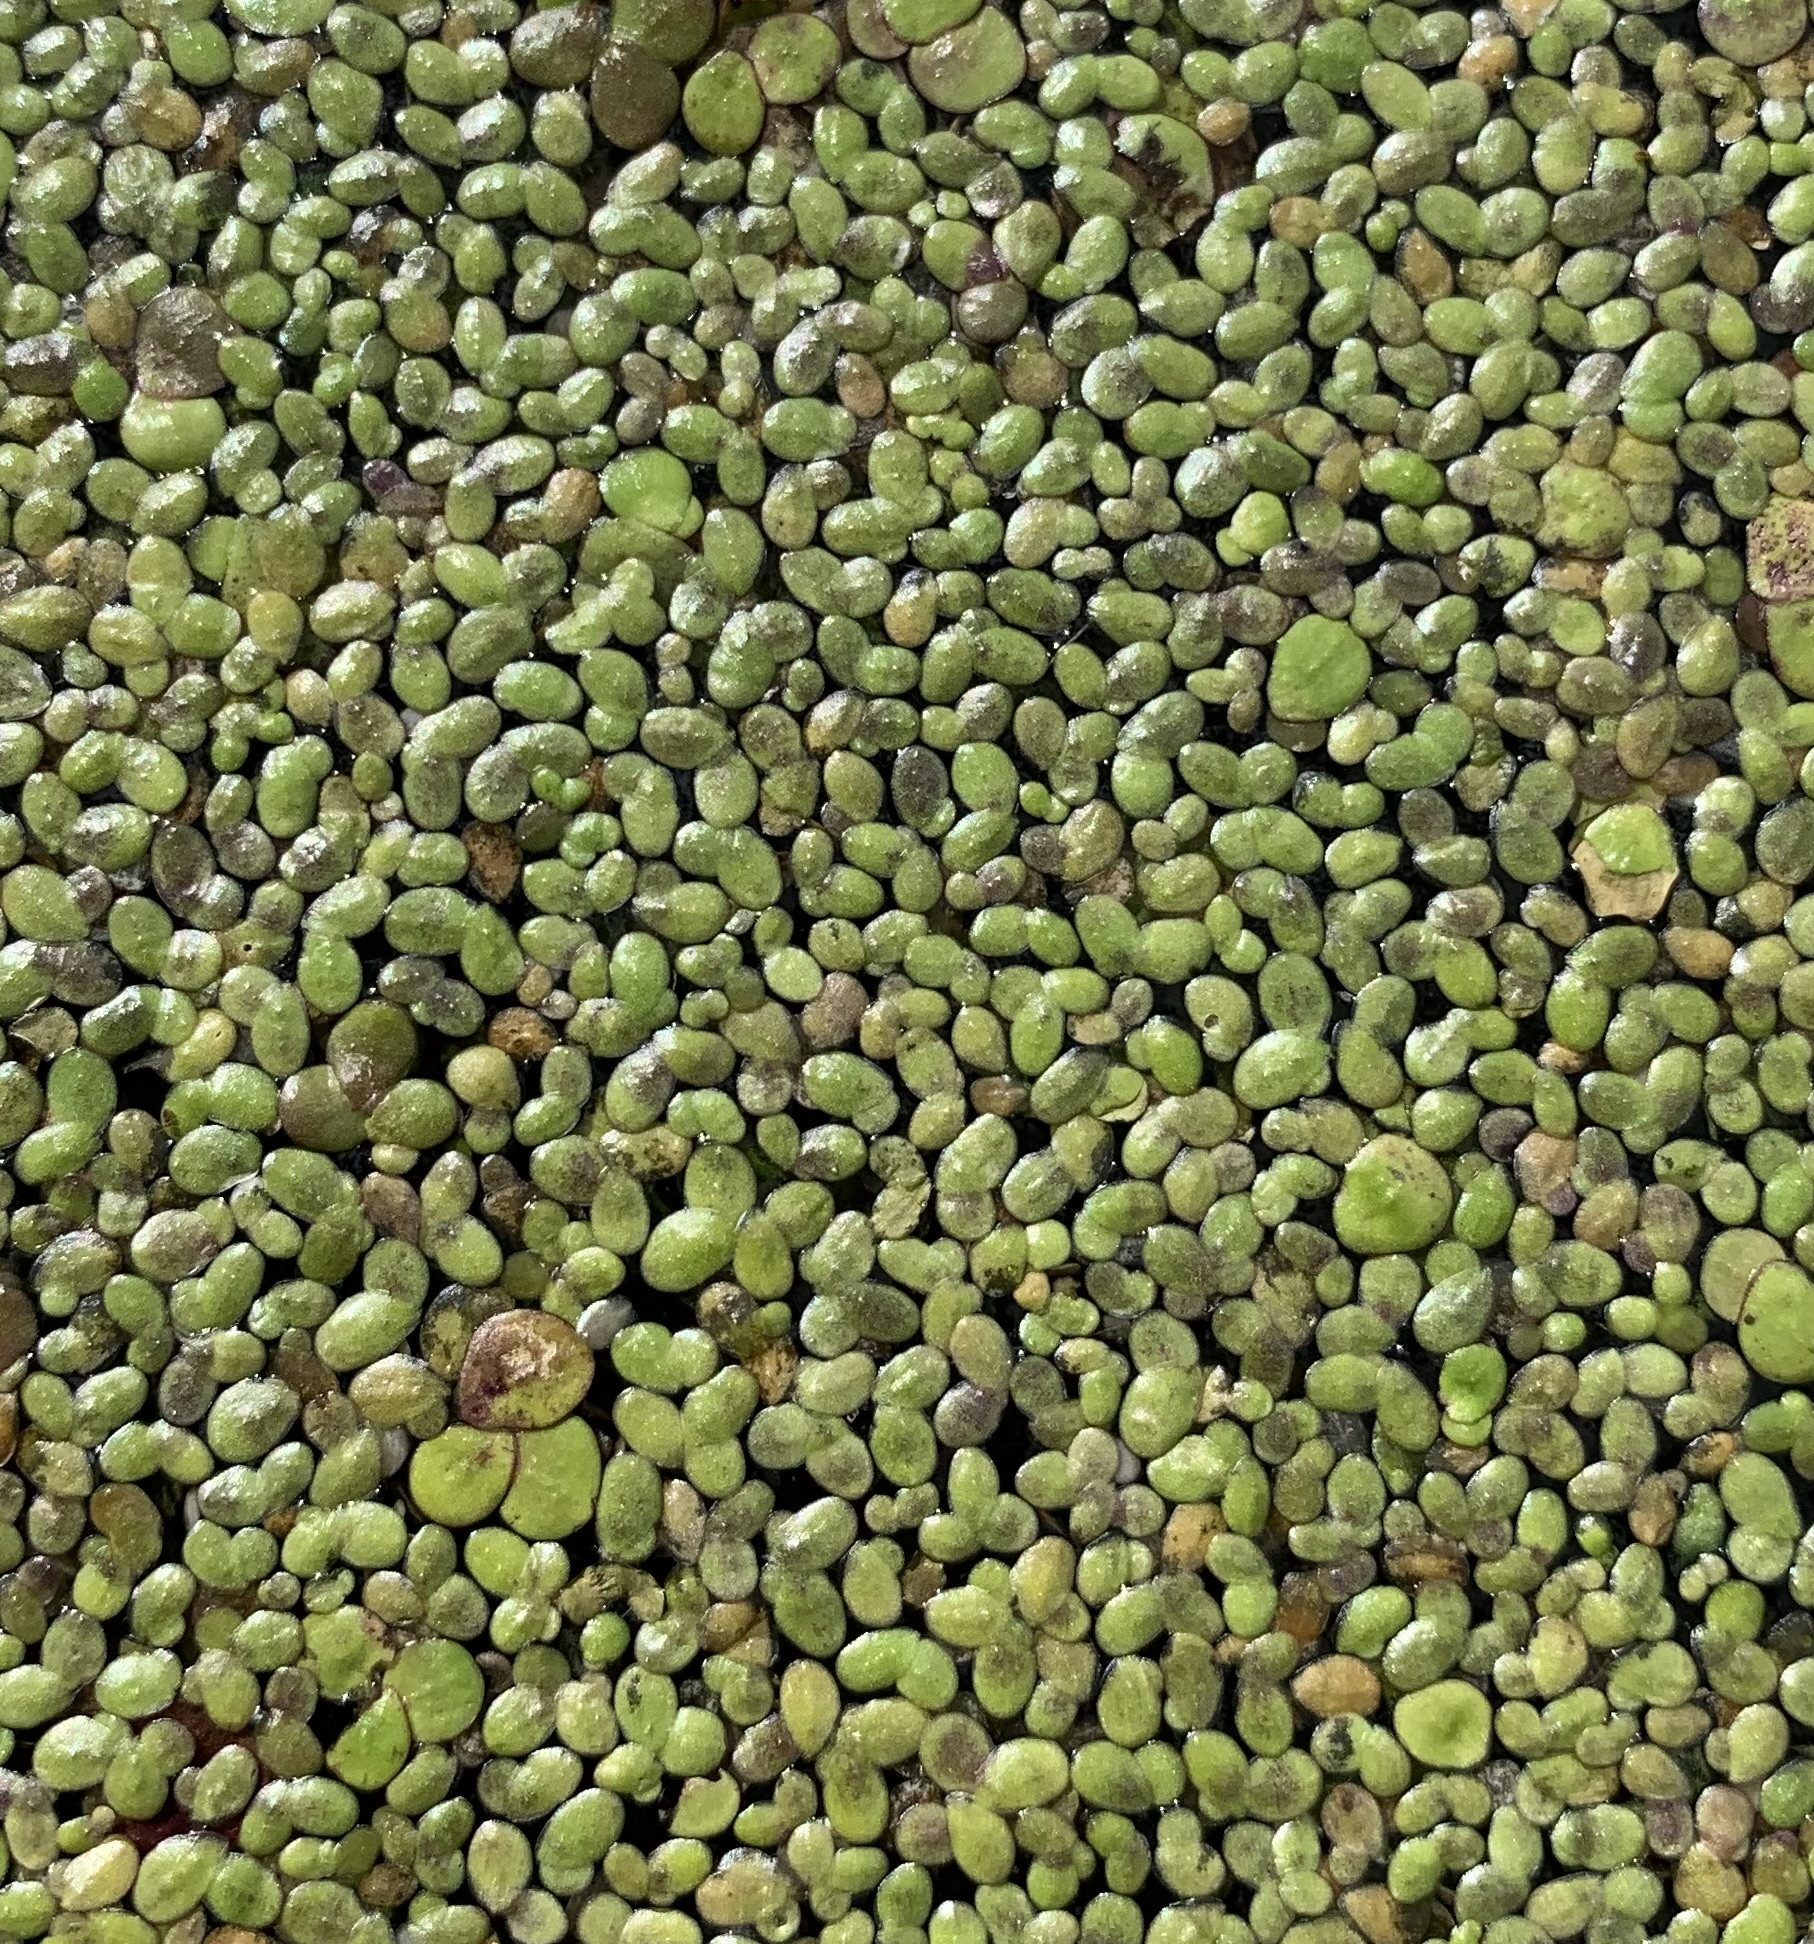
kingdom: Plantae
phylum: Tracheophyta
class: Liliopsida
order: Alismatales
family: Araceae
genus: Lemna
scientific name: Lemna turionifera
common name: Perennial duckweed
